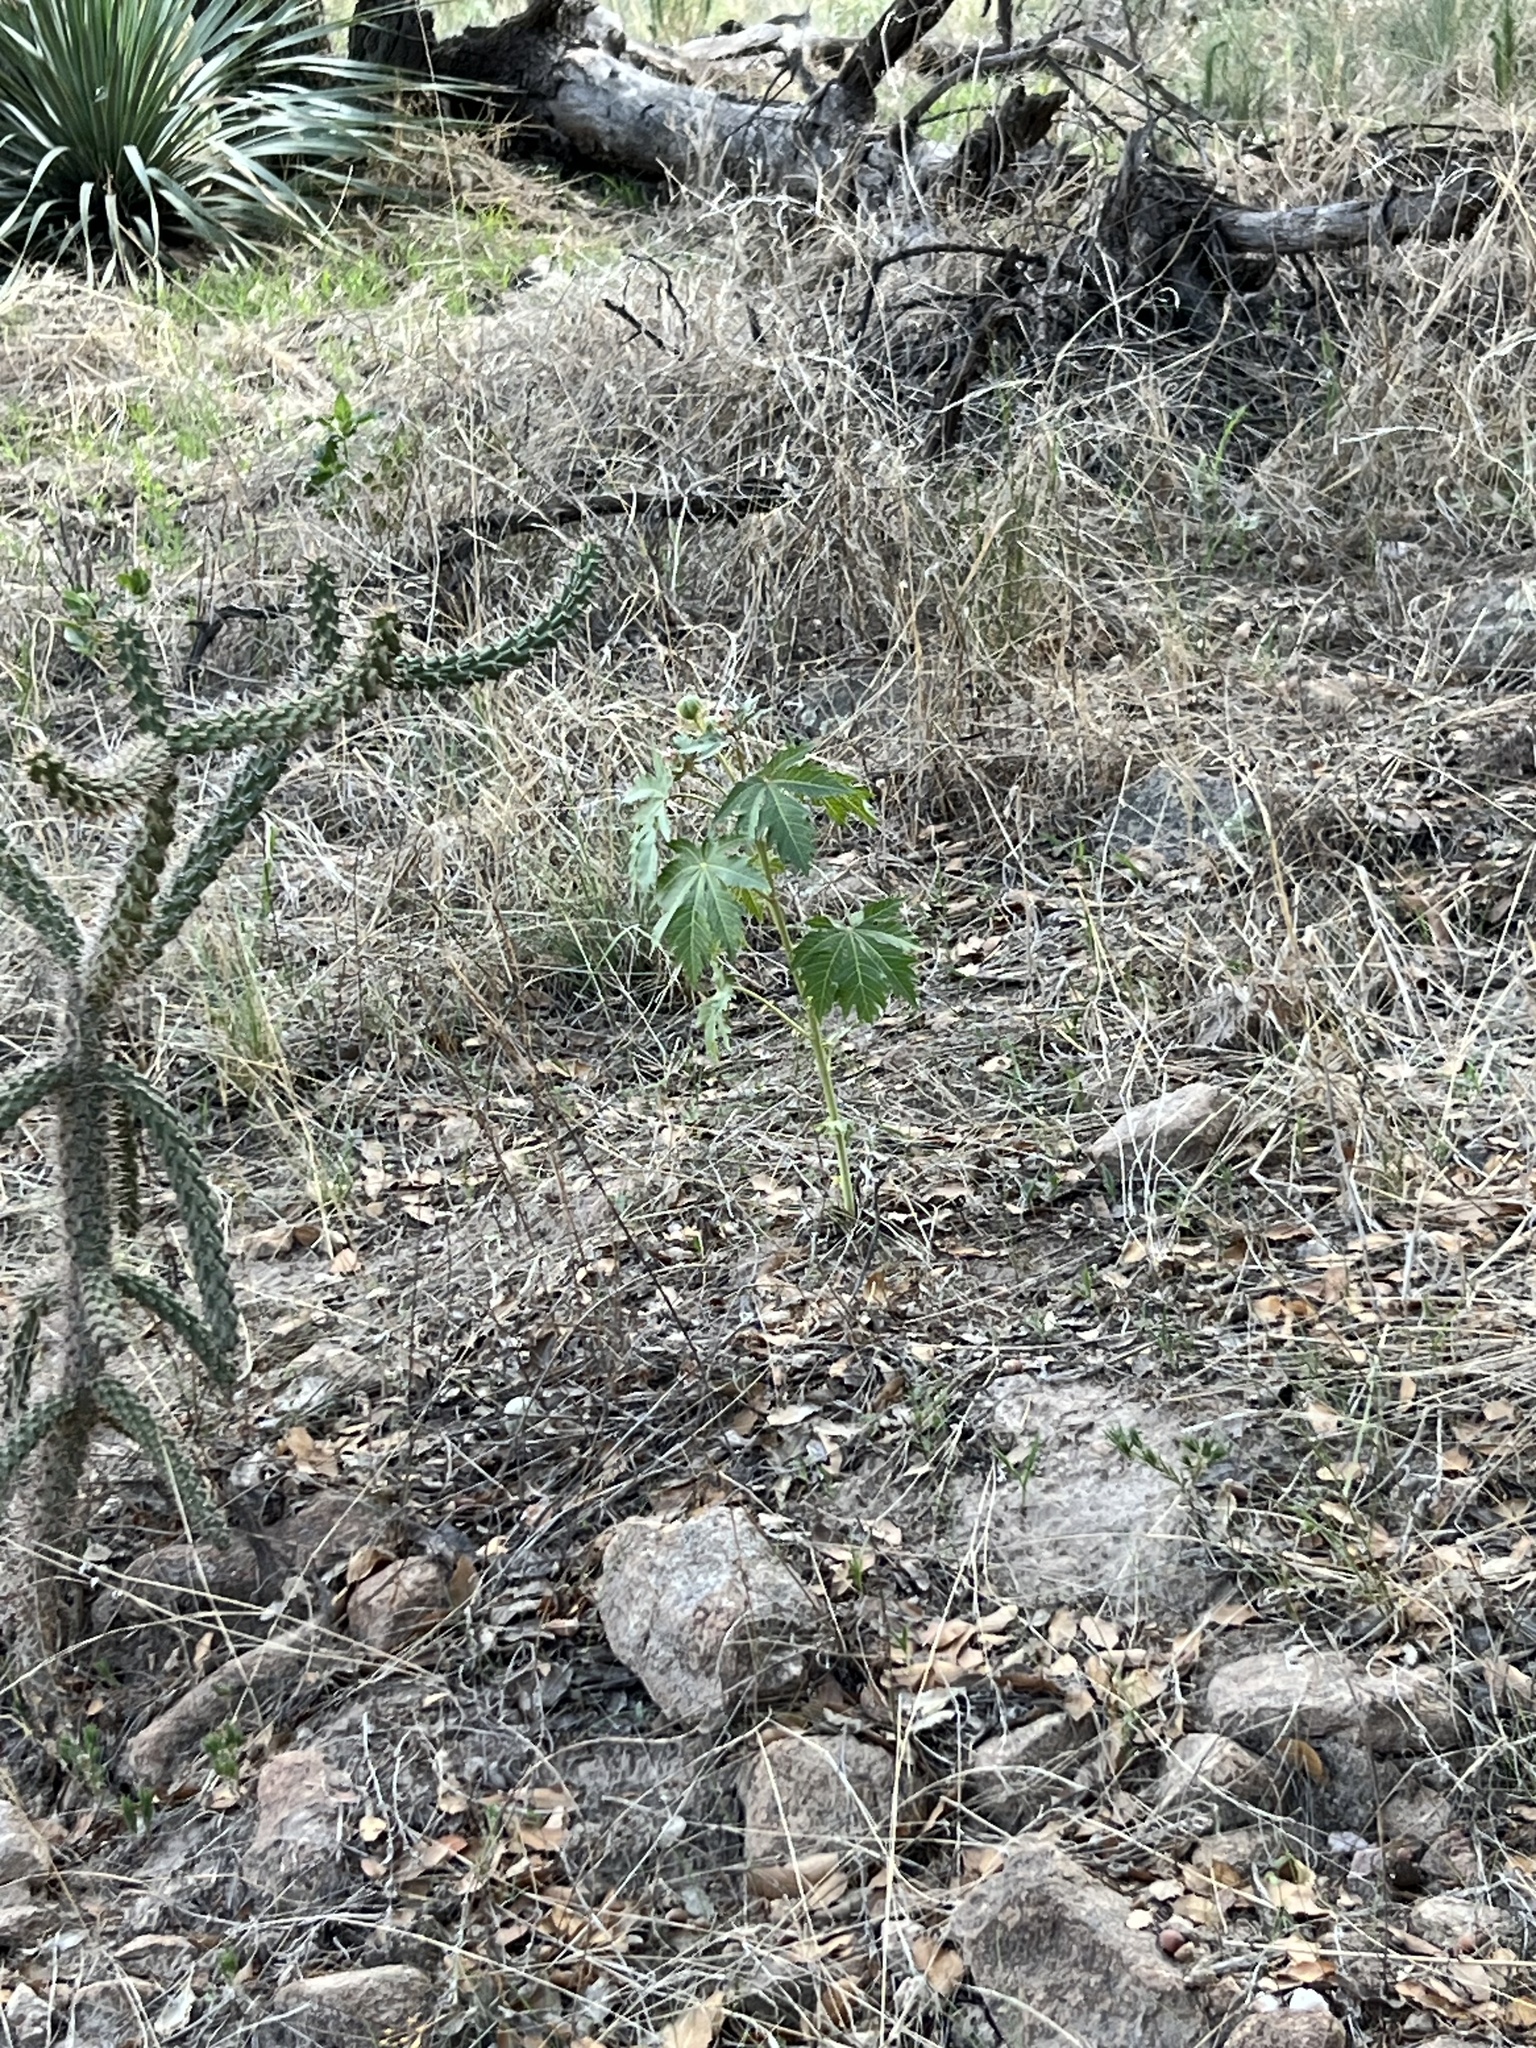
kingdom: Plantae
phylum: Tracheophyta
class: Magnoliopsida
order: Malpighiales
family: Euphorbiaceae
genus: Jatropha
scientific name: Jatropha macrorhiza
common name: Ragged nettlespurge
